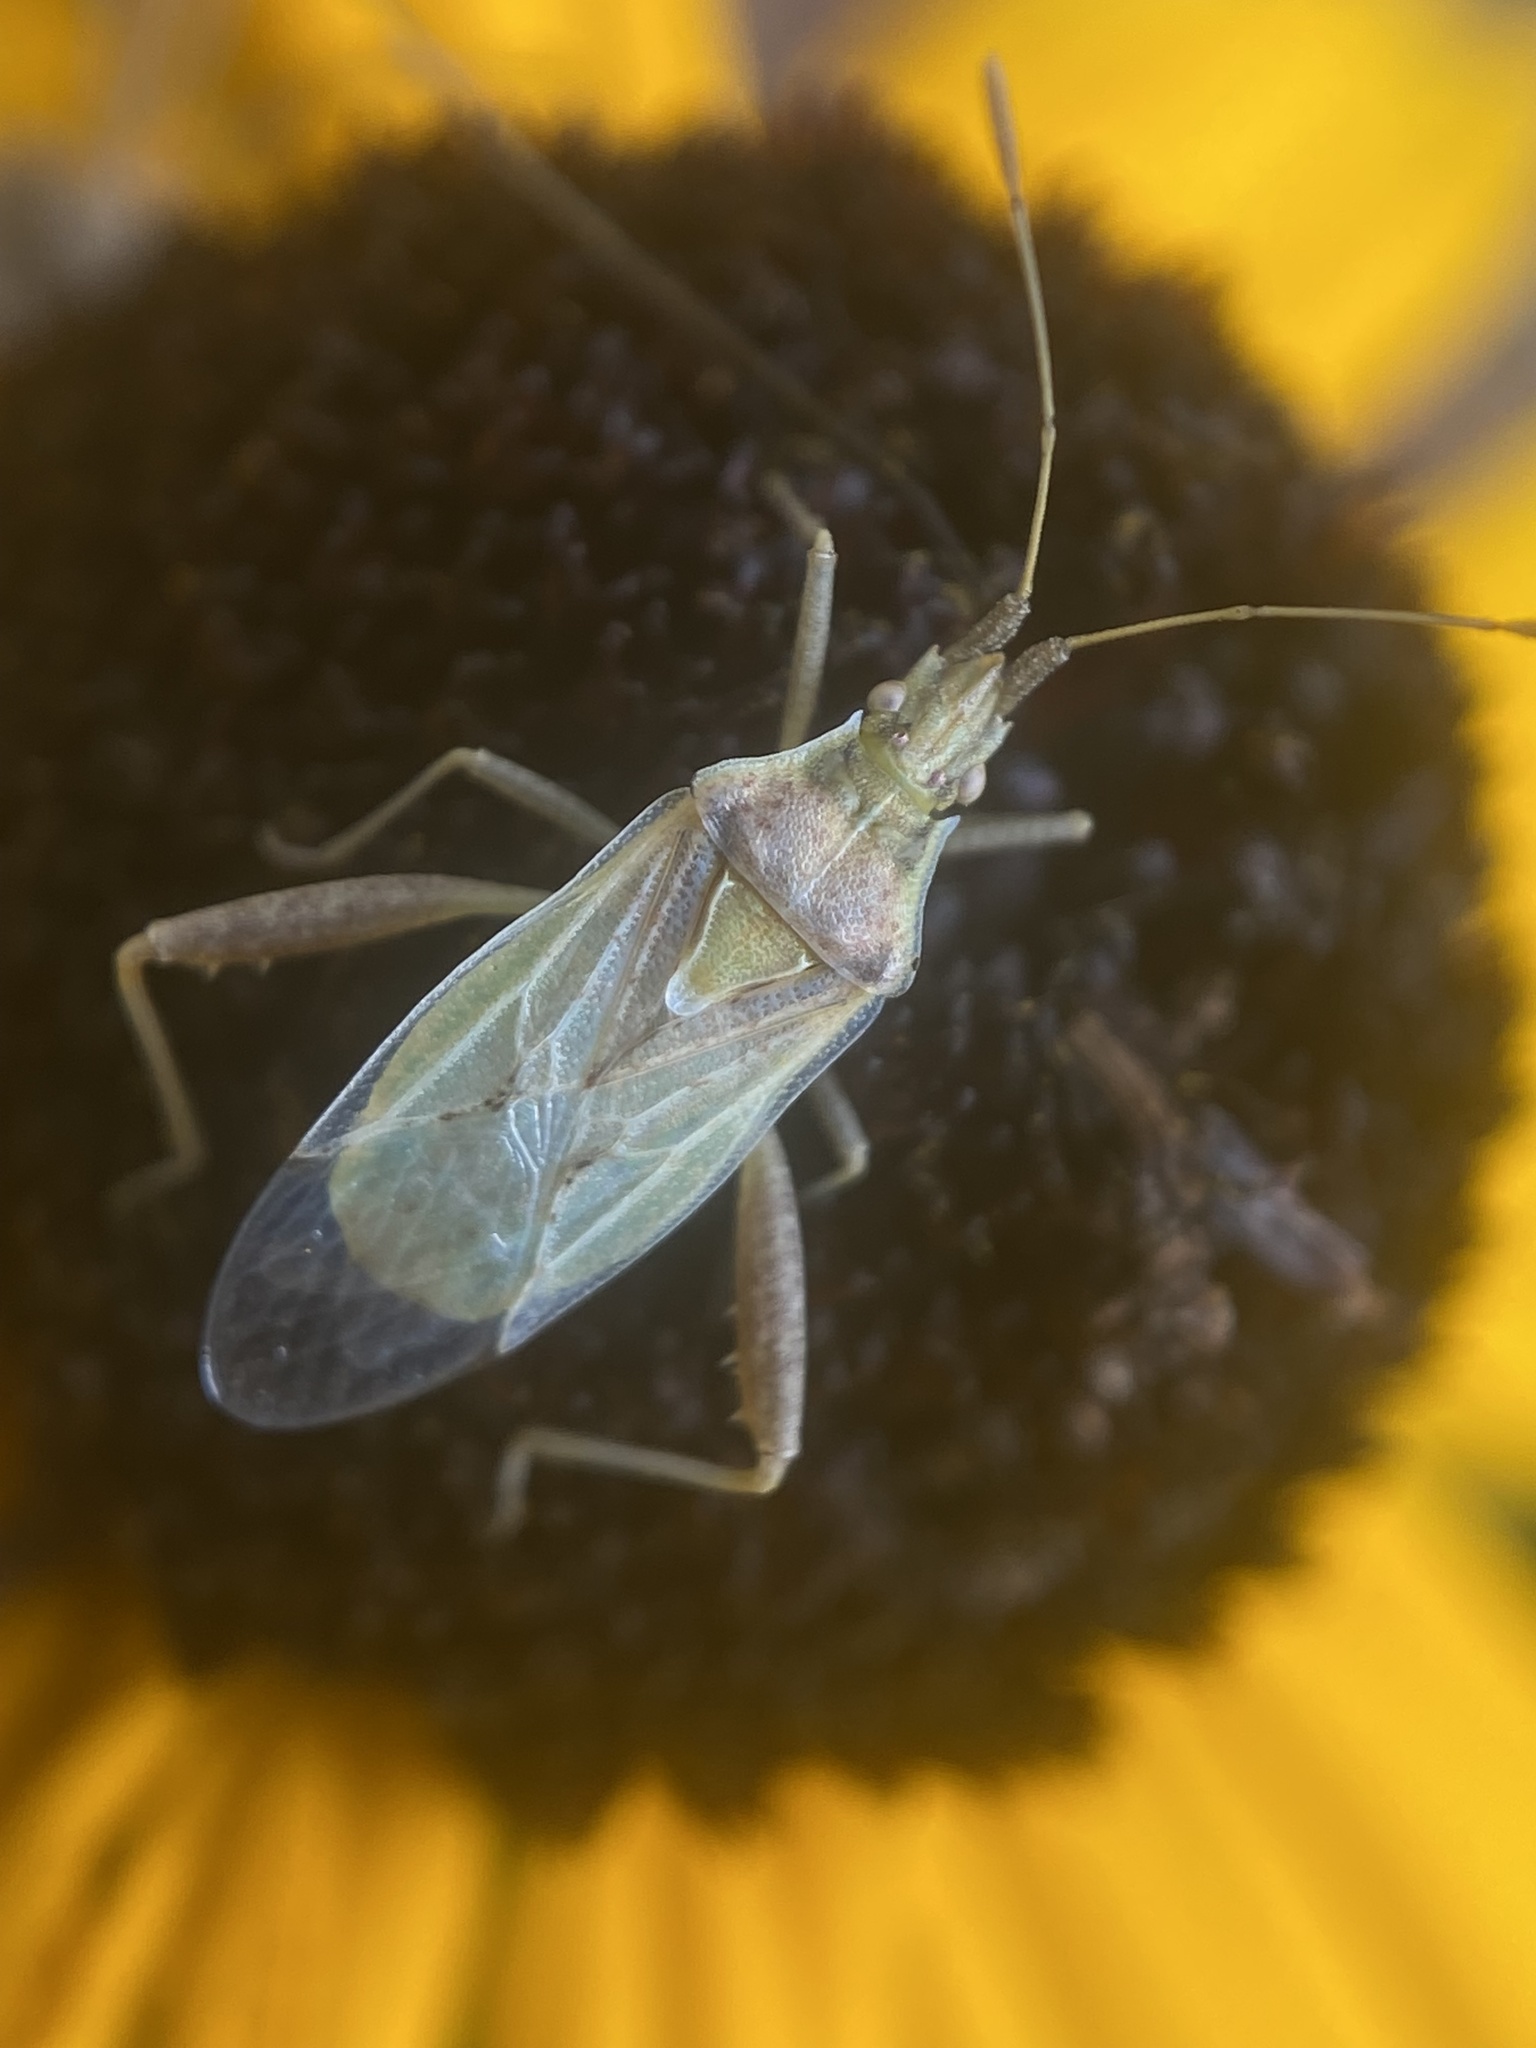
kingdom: Animalia
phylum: Arthropoda
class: Insecta
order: Hemiptera
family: Rhopalidae
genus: Harmostes
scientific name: Harmostes reflexulus
